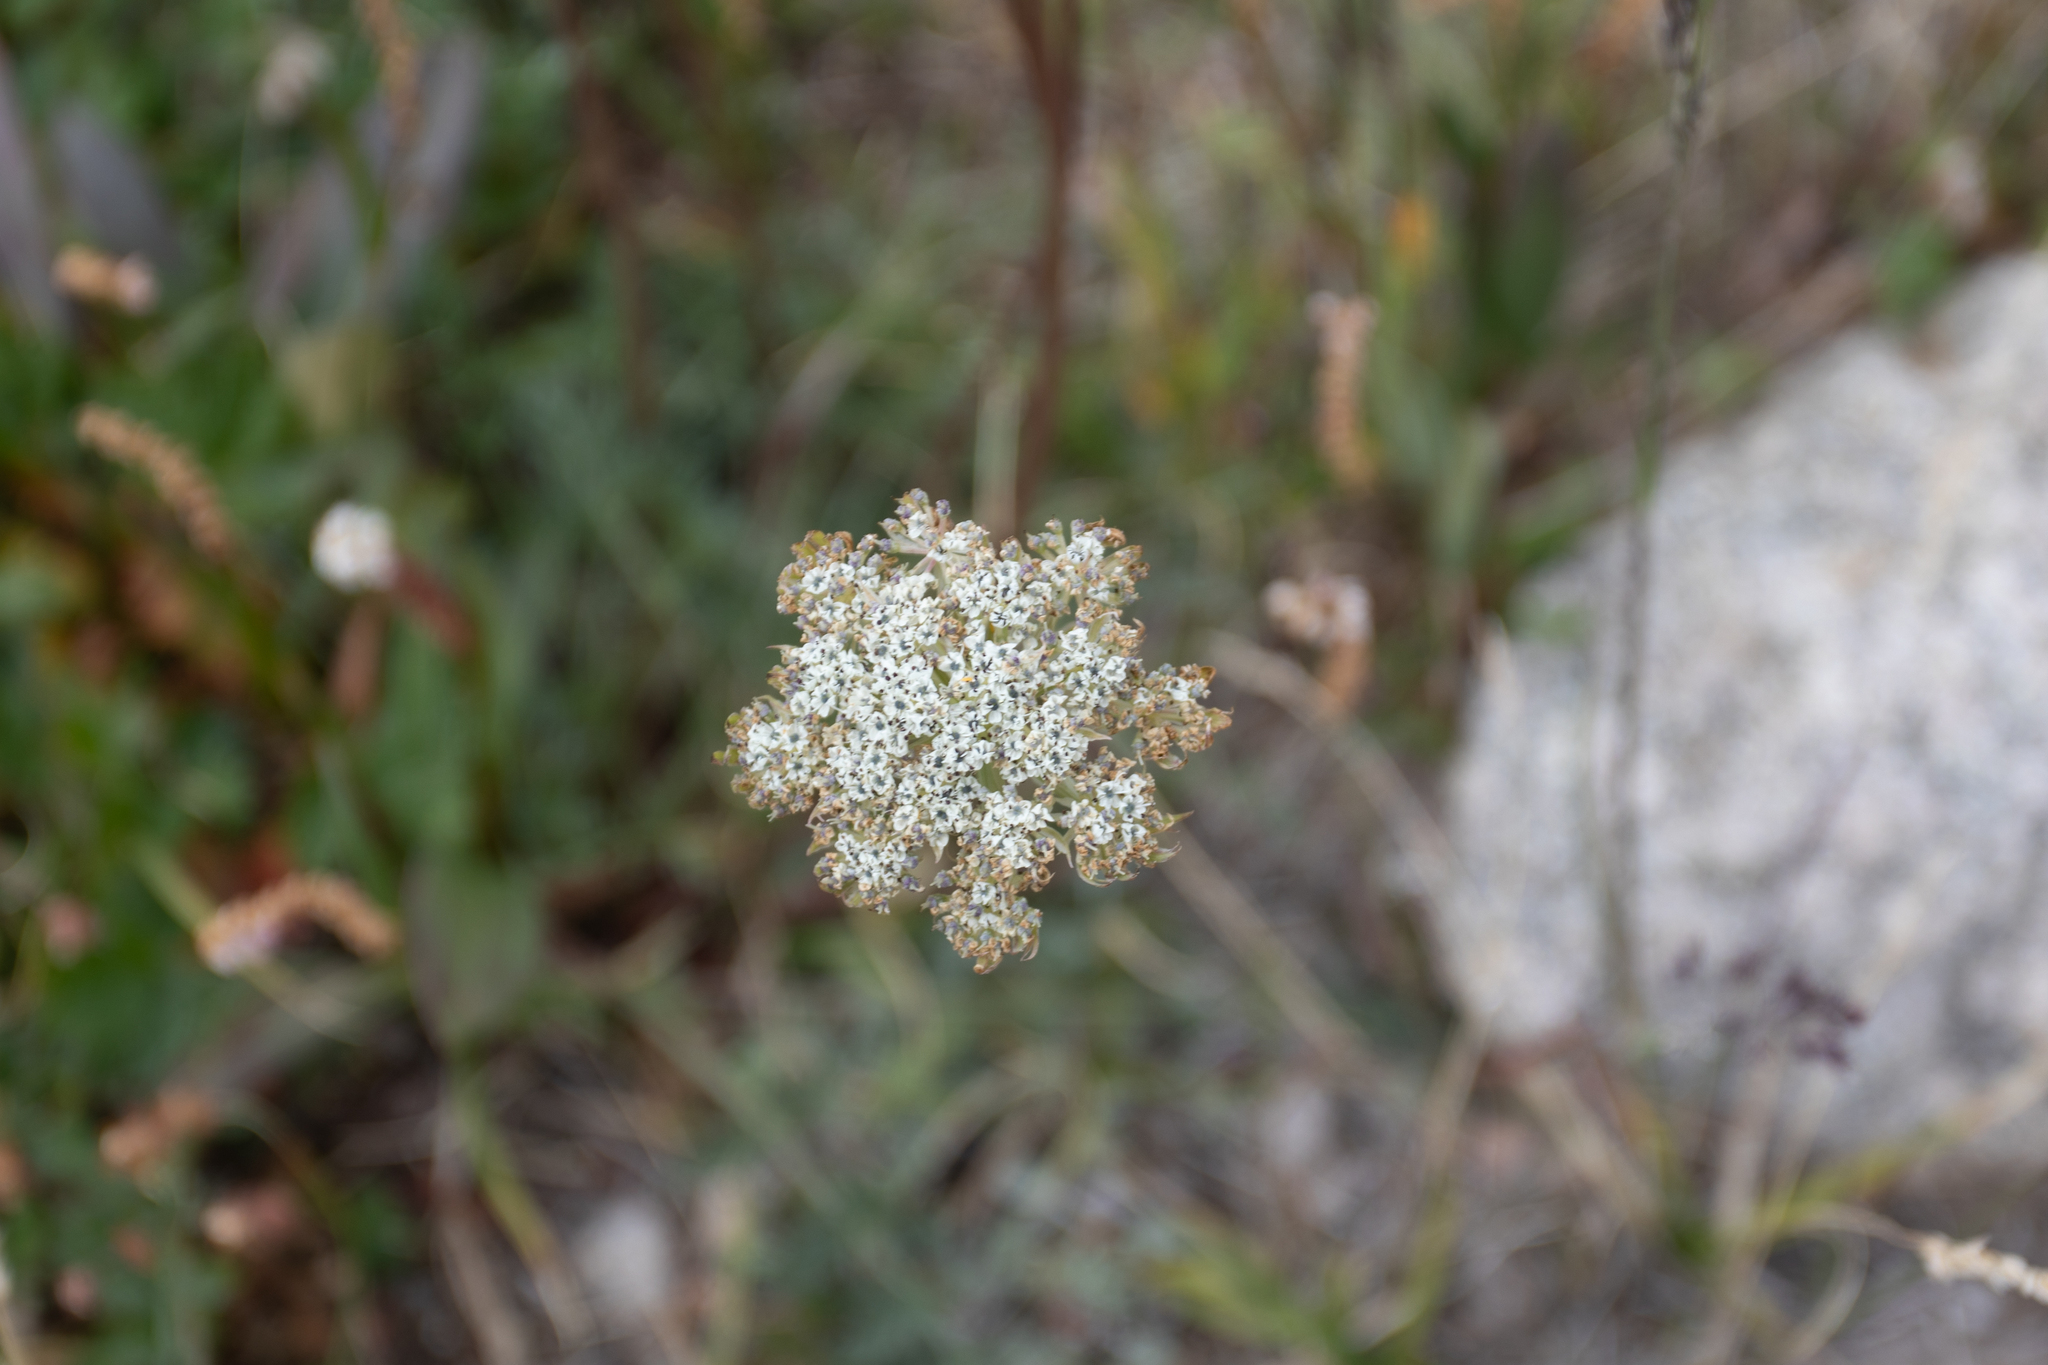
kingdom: Plantae
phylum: Tracheophyta
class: Magnoliopsida
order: Apiales
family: Apiaceae
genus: Pachypleurum
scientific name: Pachypleurum mutellinoides
